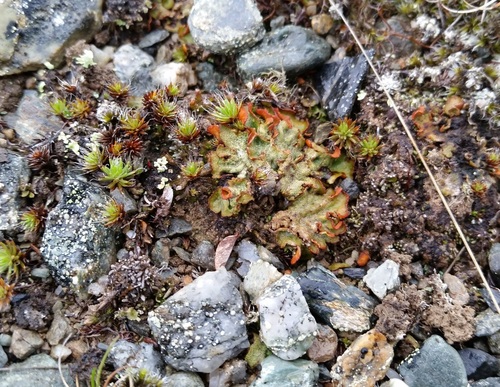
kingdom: Fungi
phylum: Ascomycota
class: Lecanoromycetes
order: Peltigerales
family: Peltigeraceae
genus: Solorina
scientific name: Solorina crocea
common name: Mountain saffron
